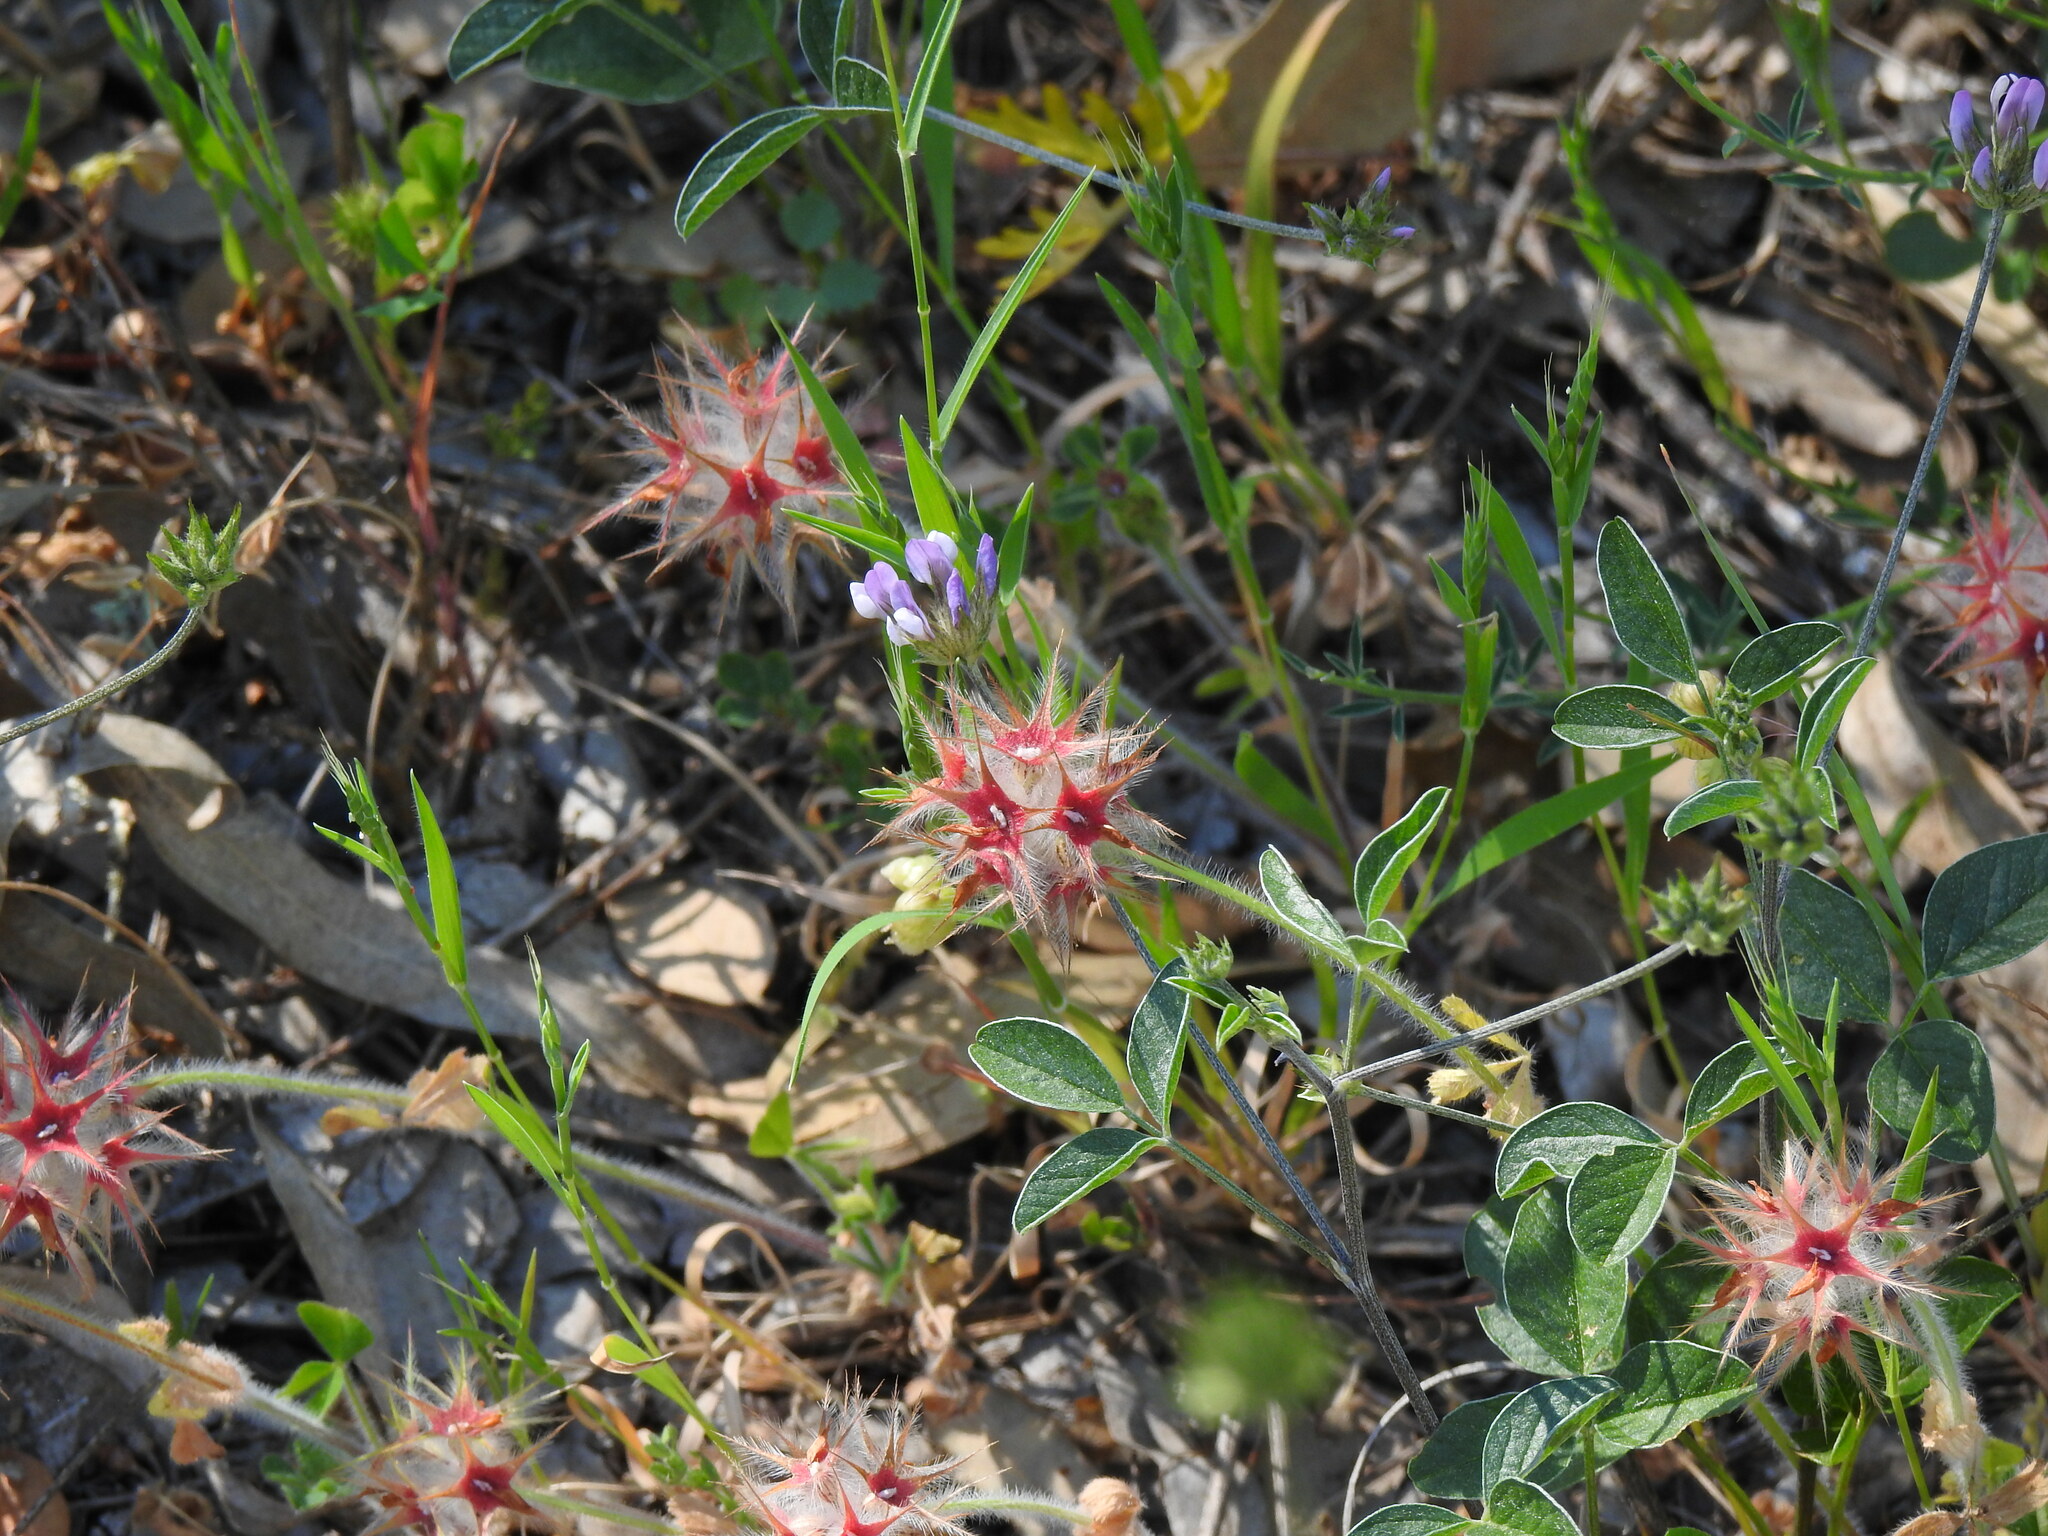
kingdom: Plantae
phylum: Tracheophyta
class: Magnoliopsida
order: Fabales
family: Fabaceae
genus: Trifolium
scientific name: Trifolium stellatum
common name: Starry clover
